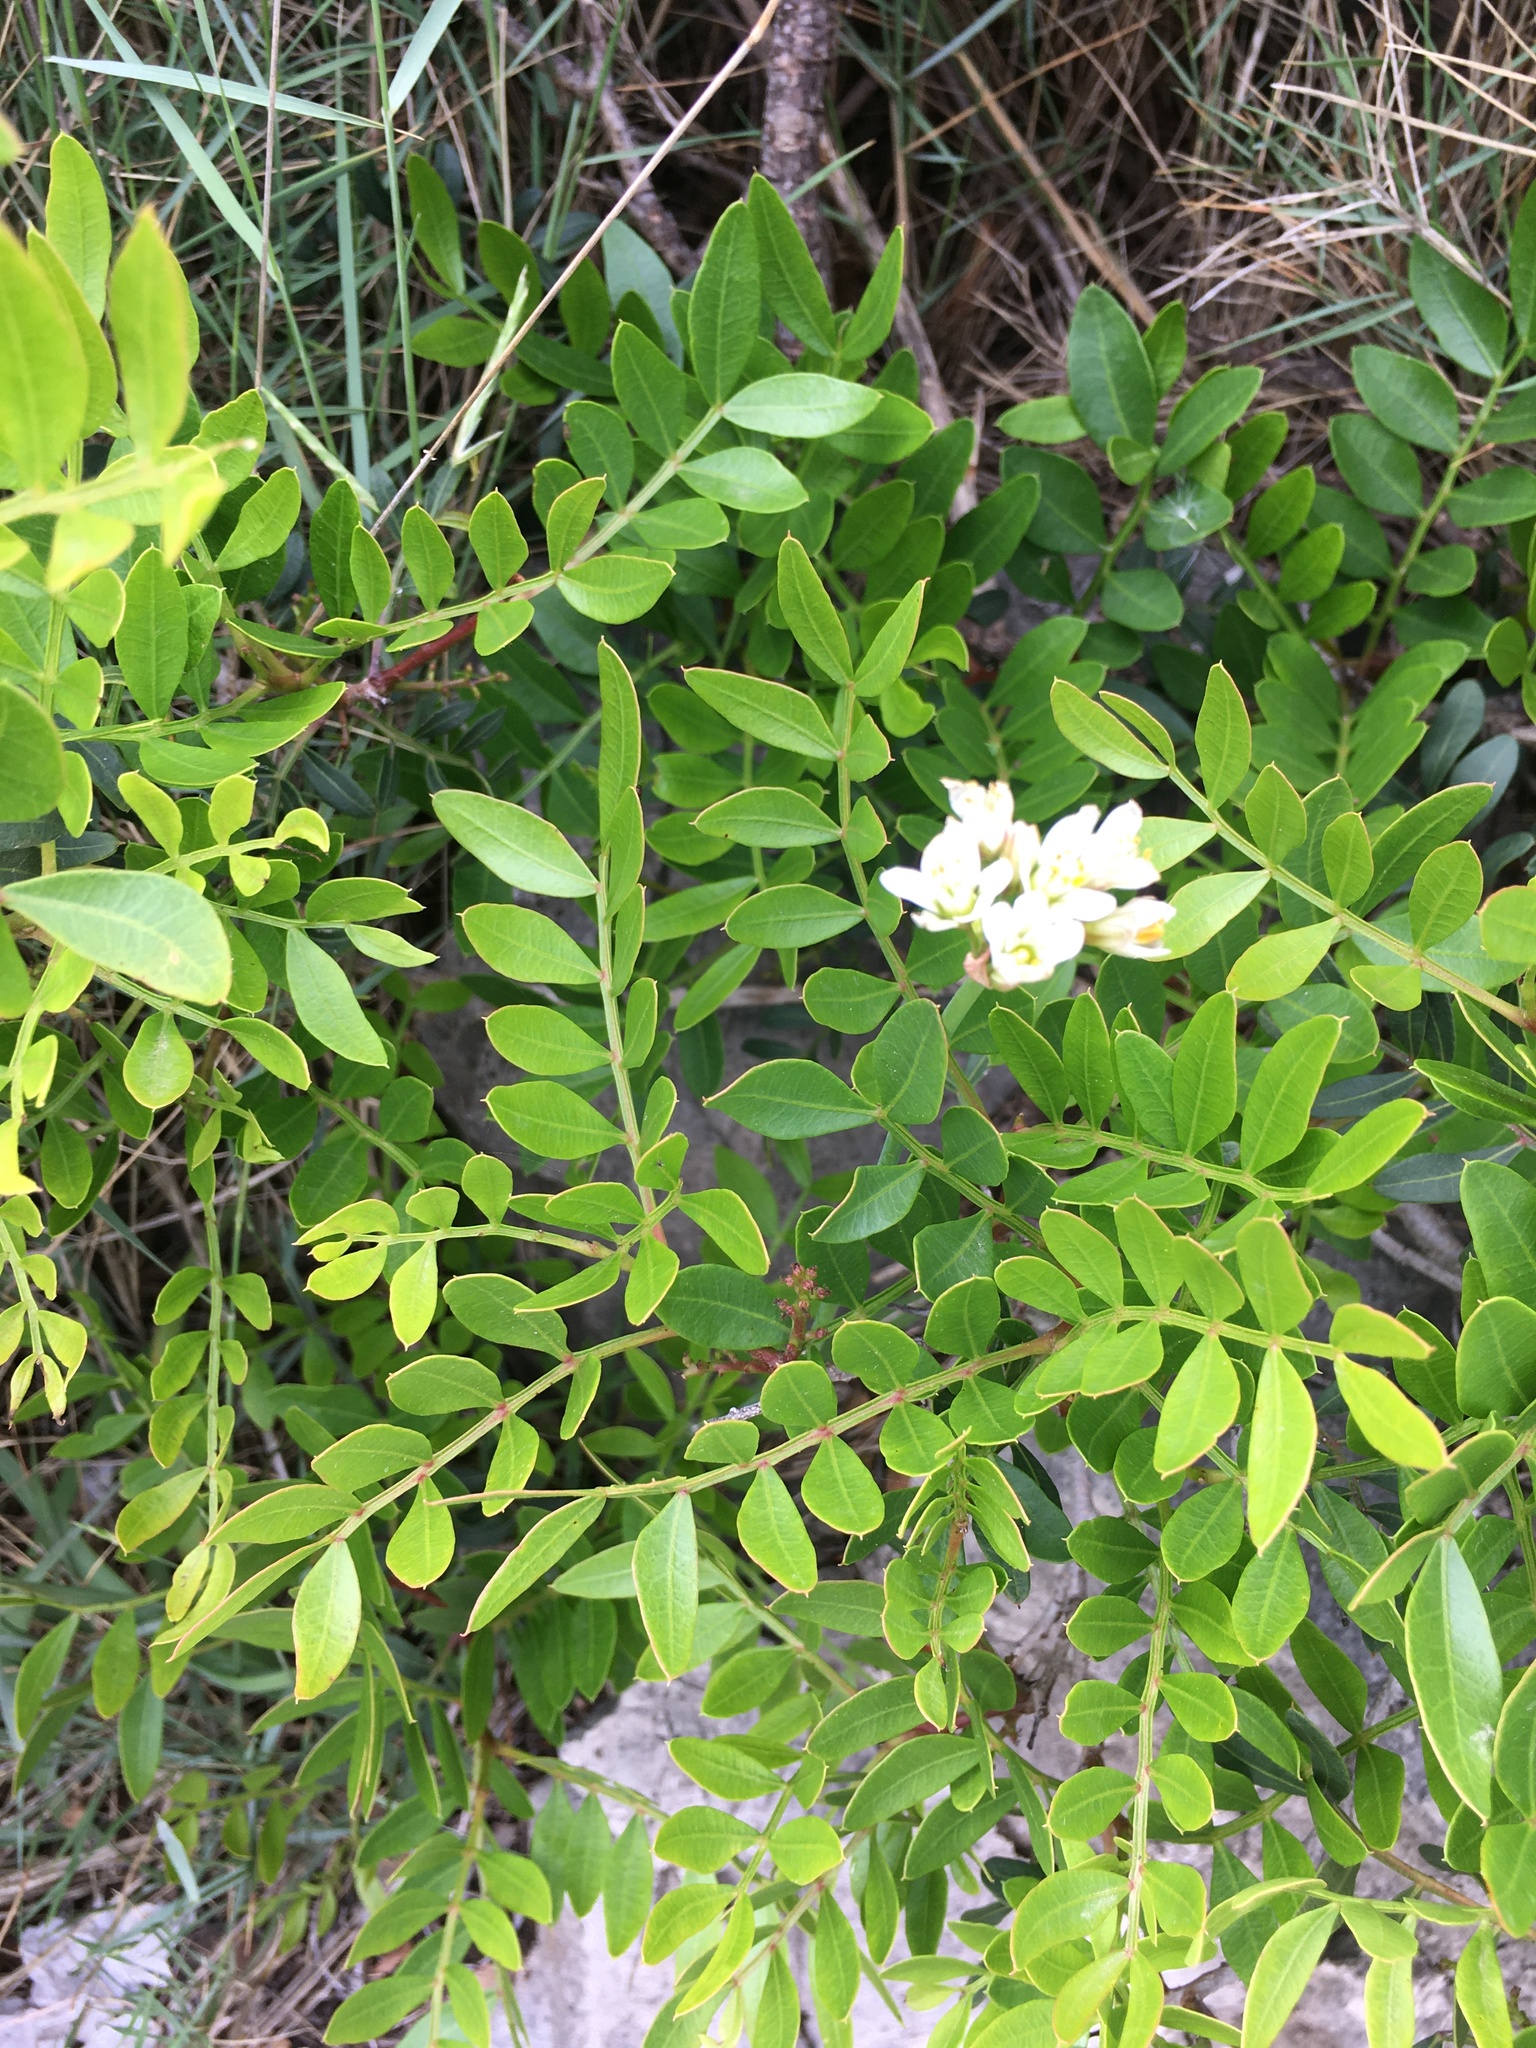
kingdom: Plantae
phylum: Tracheophyta
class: Magnoliopsida
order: Sapindales
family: Anacardiaceae
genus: Pistacia
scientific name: Pistacia lentiscus
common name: Lentisk
